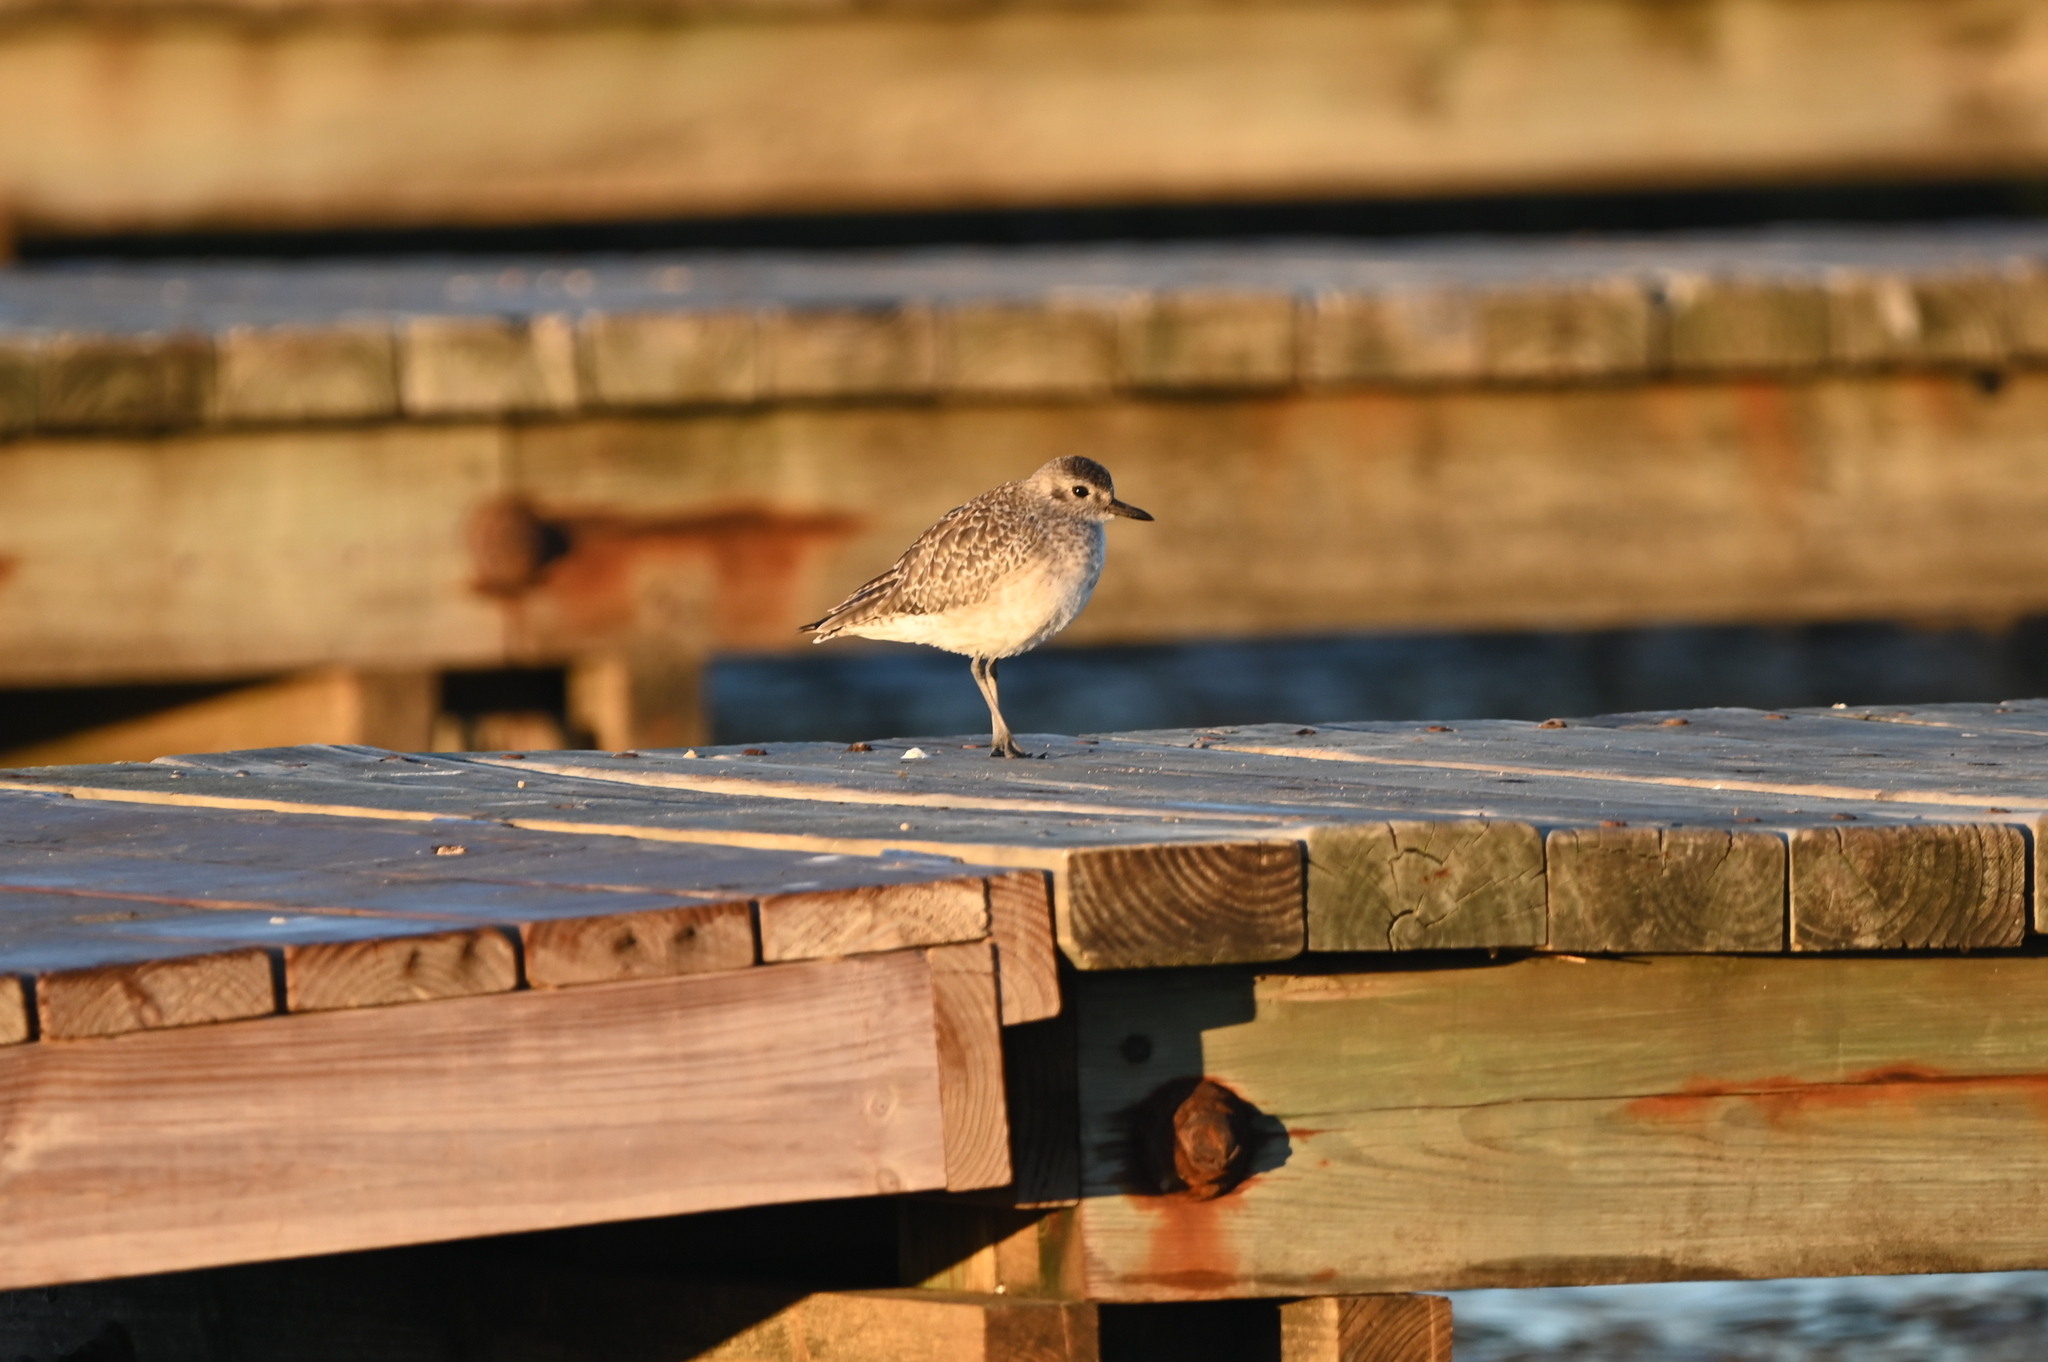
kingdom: Animalia
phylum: Chordata
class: Aves
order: Charadriiformes
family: Charadriidae
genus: Pluvialis
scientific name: Pluvialis squatarola
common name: Grey plover
